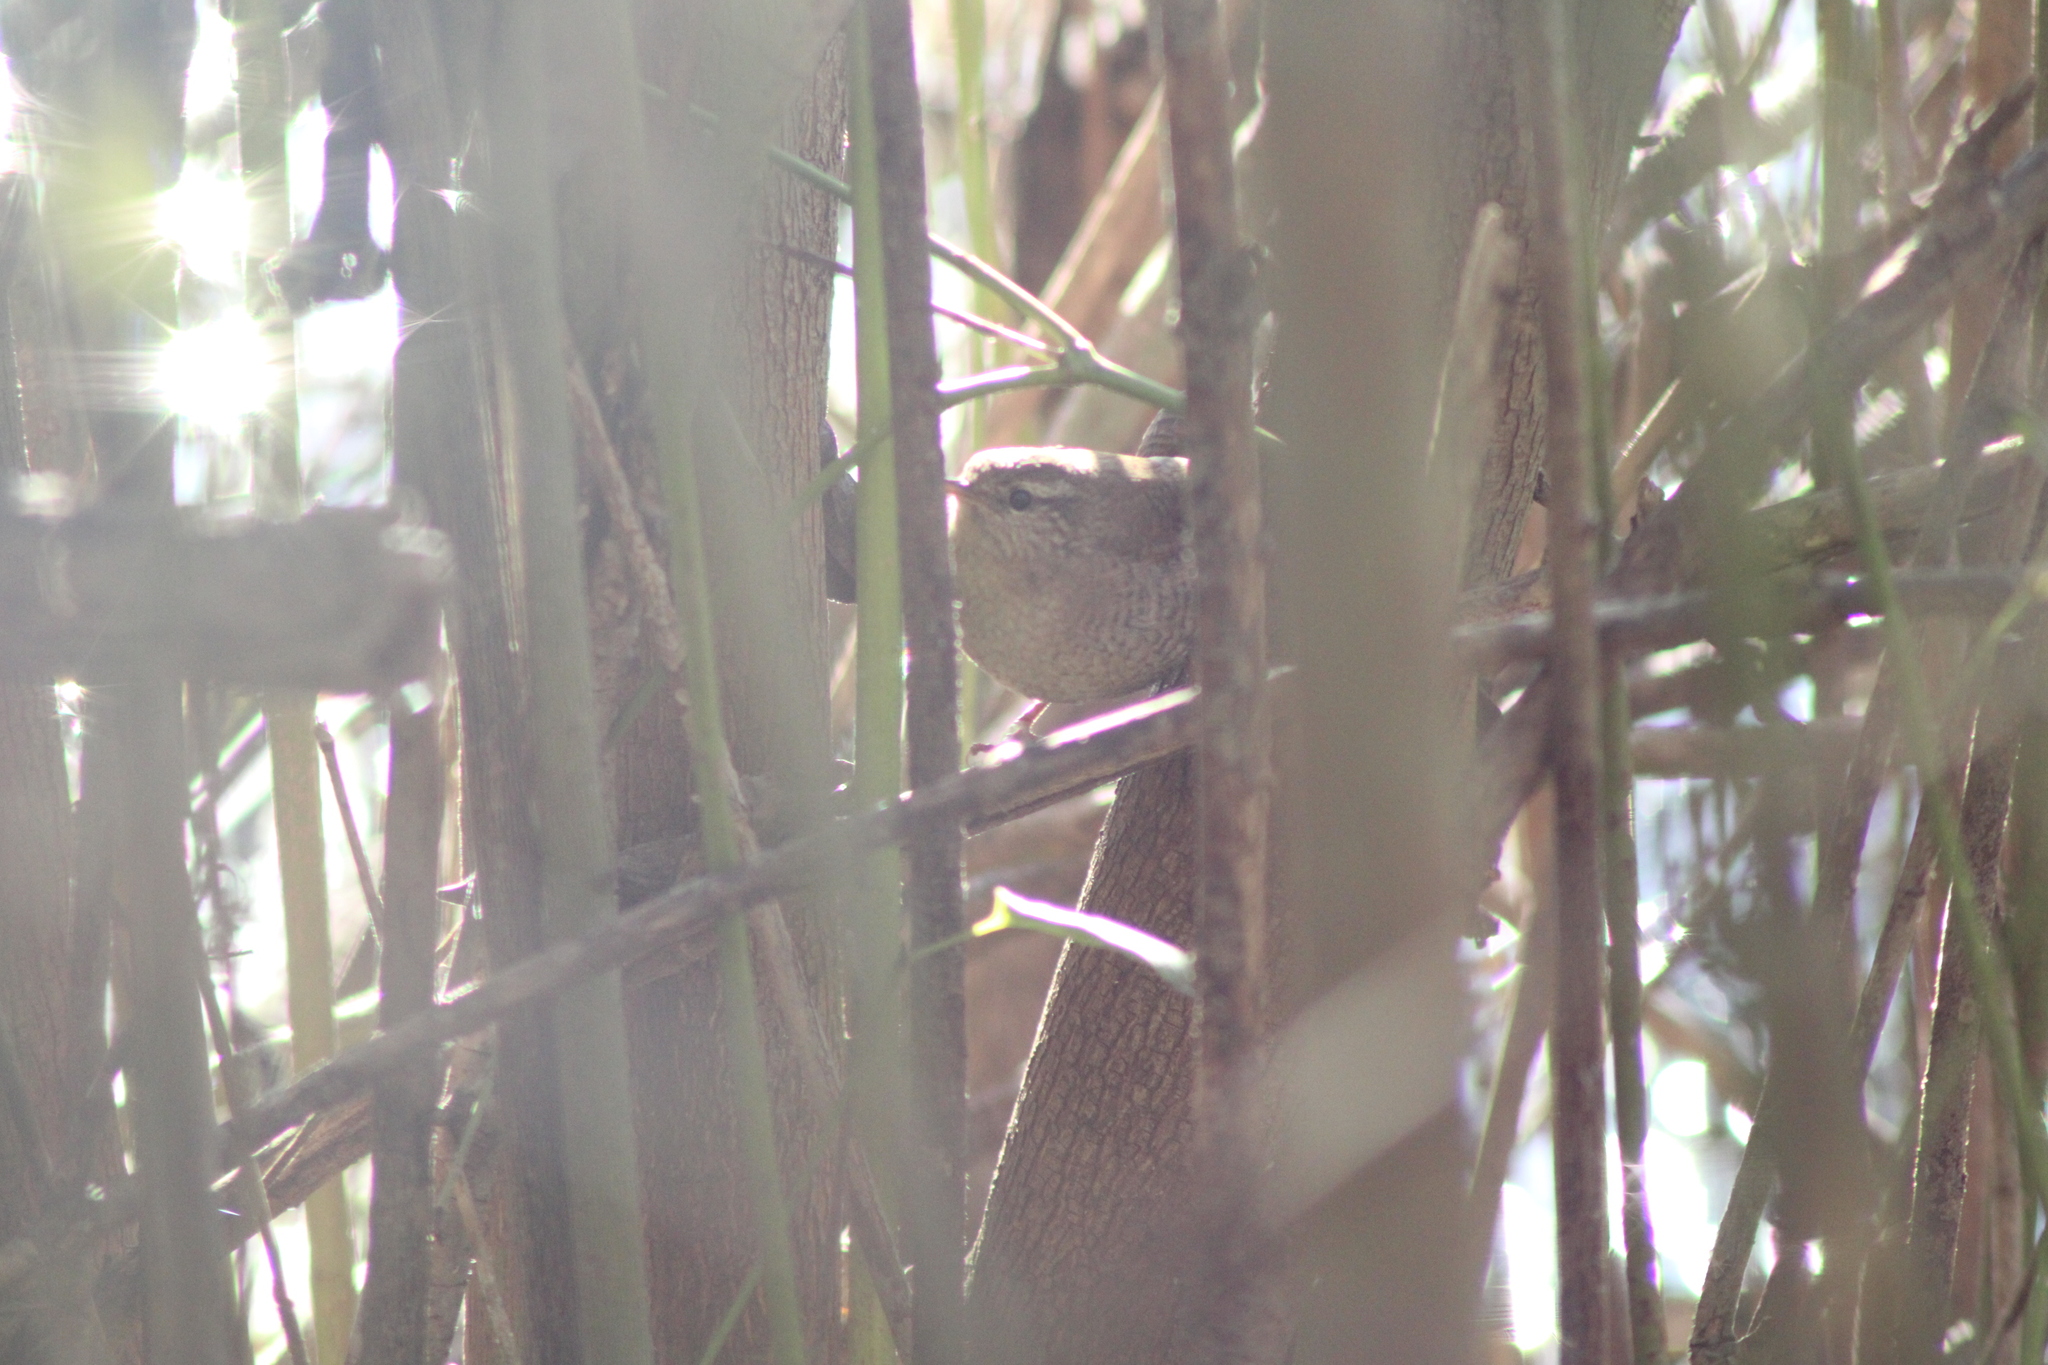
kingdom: Animalia
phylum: Chordata
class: Aves
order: Passeriformes
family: Troglodytidae
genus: Troglodytes
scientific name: Troglodytes troglodytes
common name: Eurasian wren
